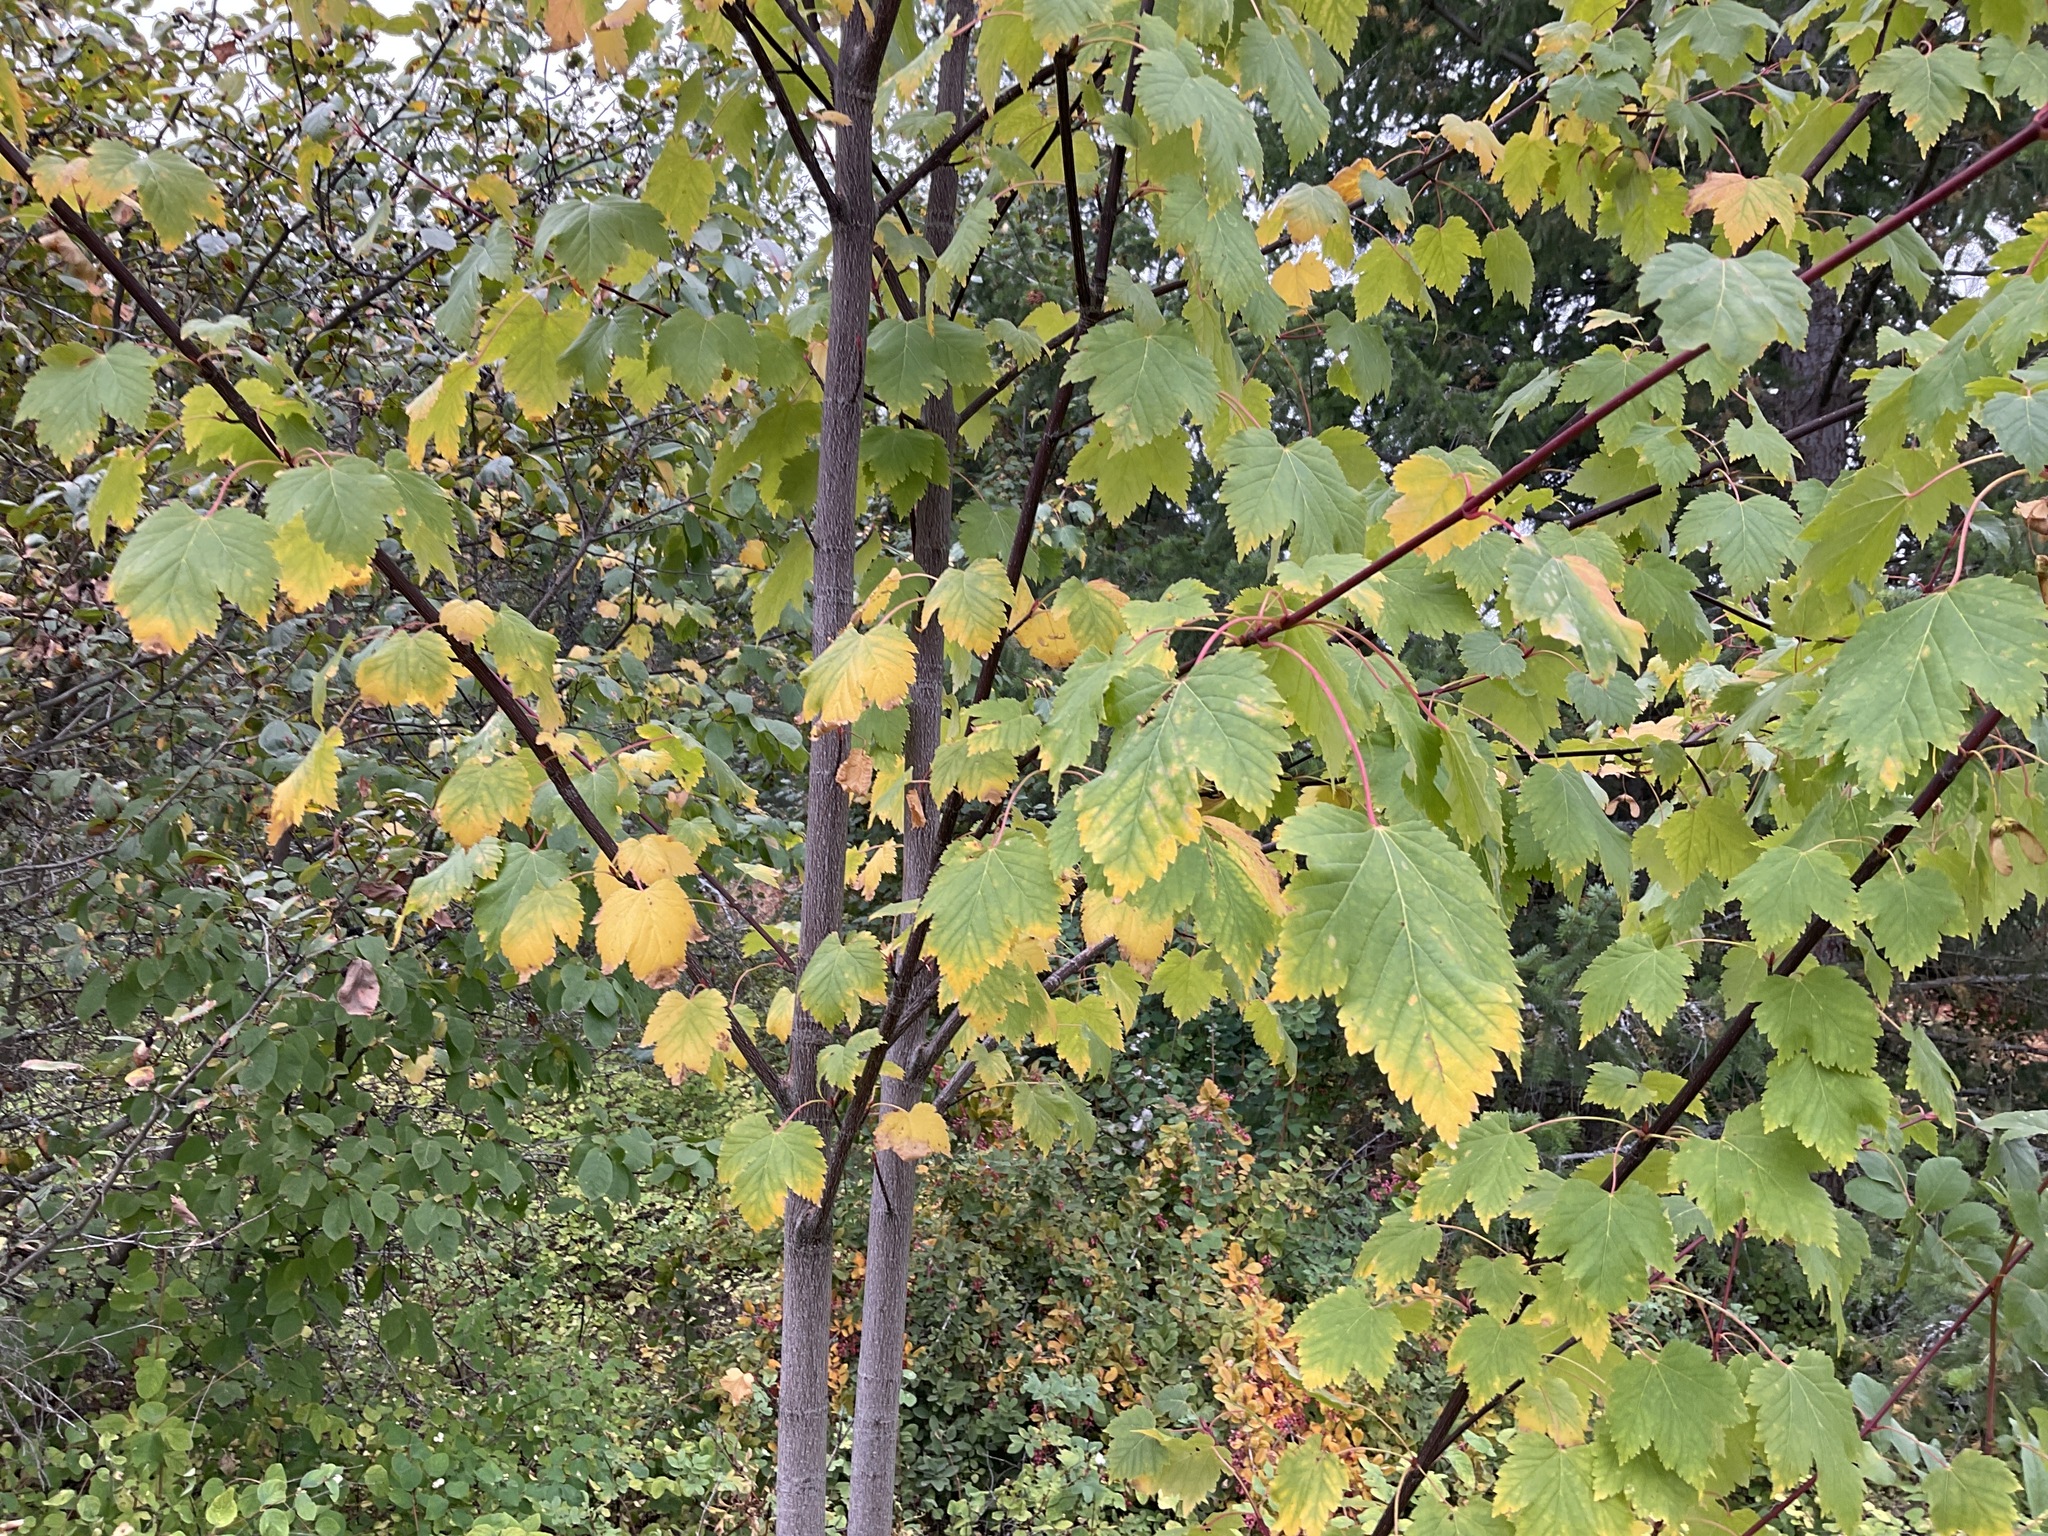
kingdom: Plantae
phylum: Tracheophyta
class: Magnoliopsida
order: Sapindales
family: Sapindaceae
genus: Acer
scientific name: Acer glabrum
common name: Rocky mountain maple
